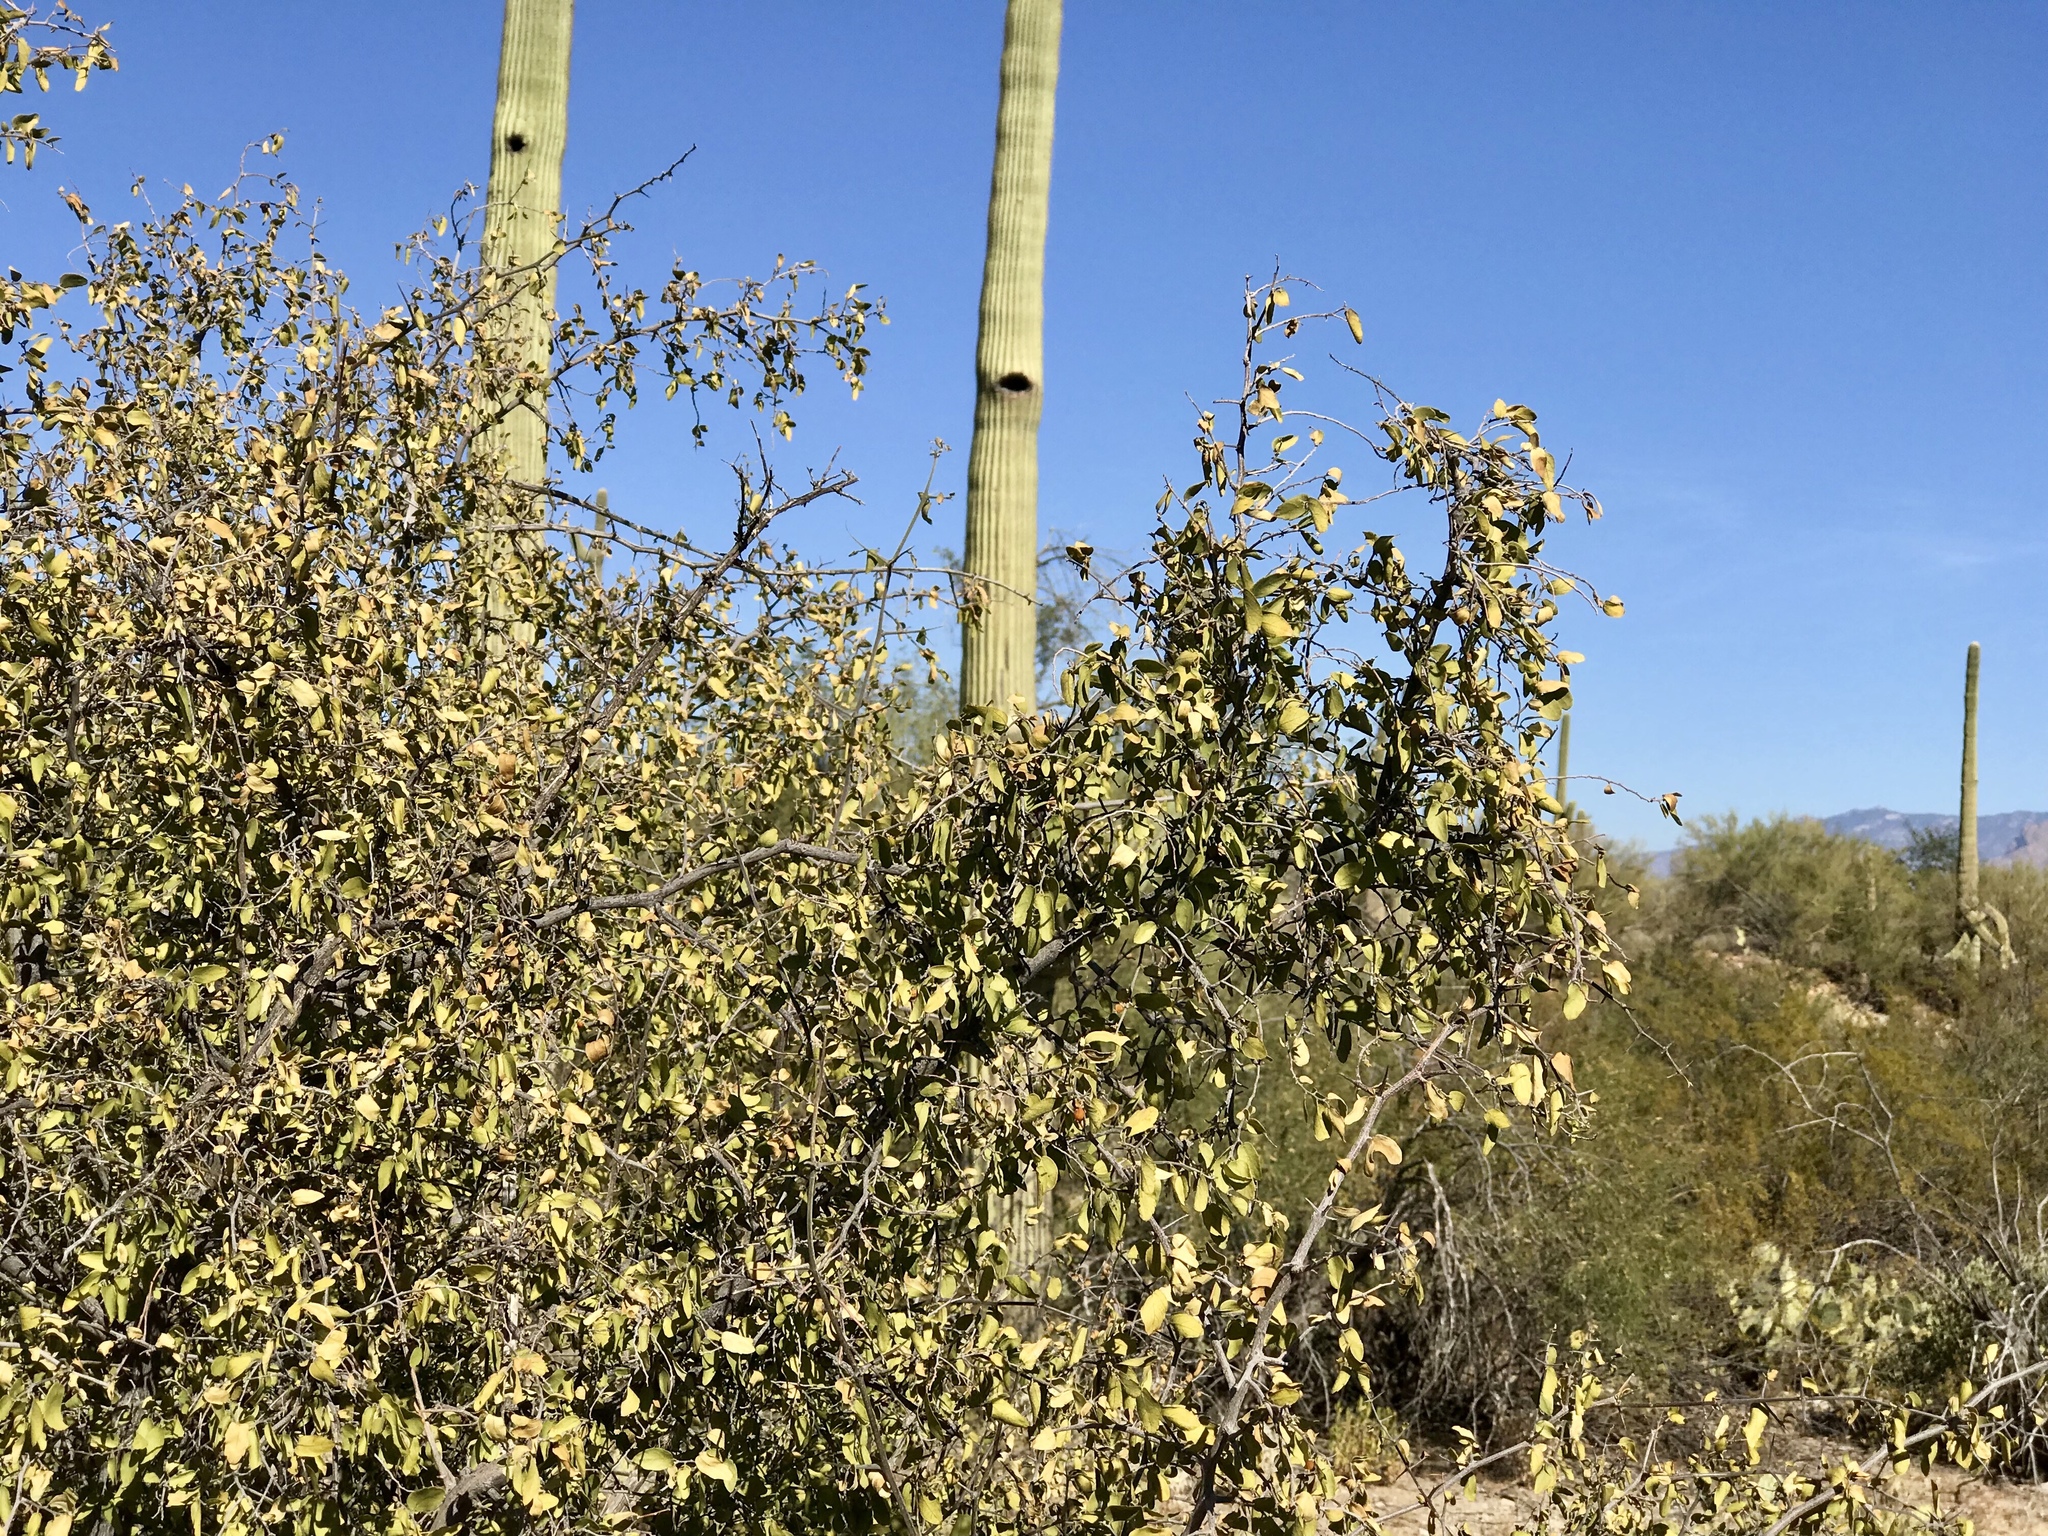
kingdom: Plantae
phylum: Tracheophyta
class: Magnoliopsida
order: Rosales
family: Cannabaceae
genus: Celtis
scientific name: Celtis pallida
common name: Desert hackberry
